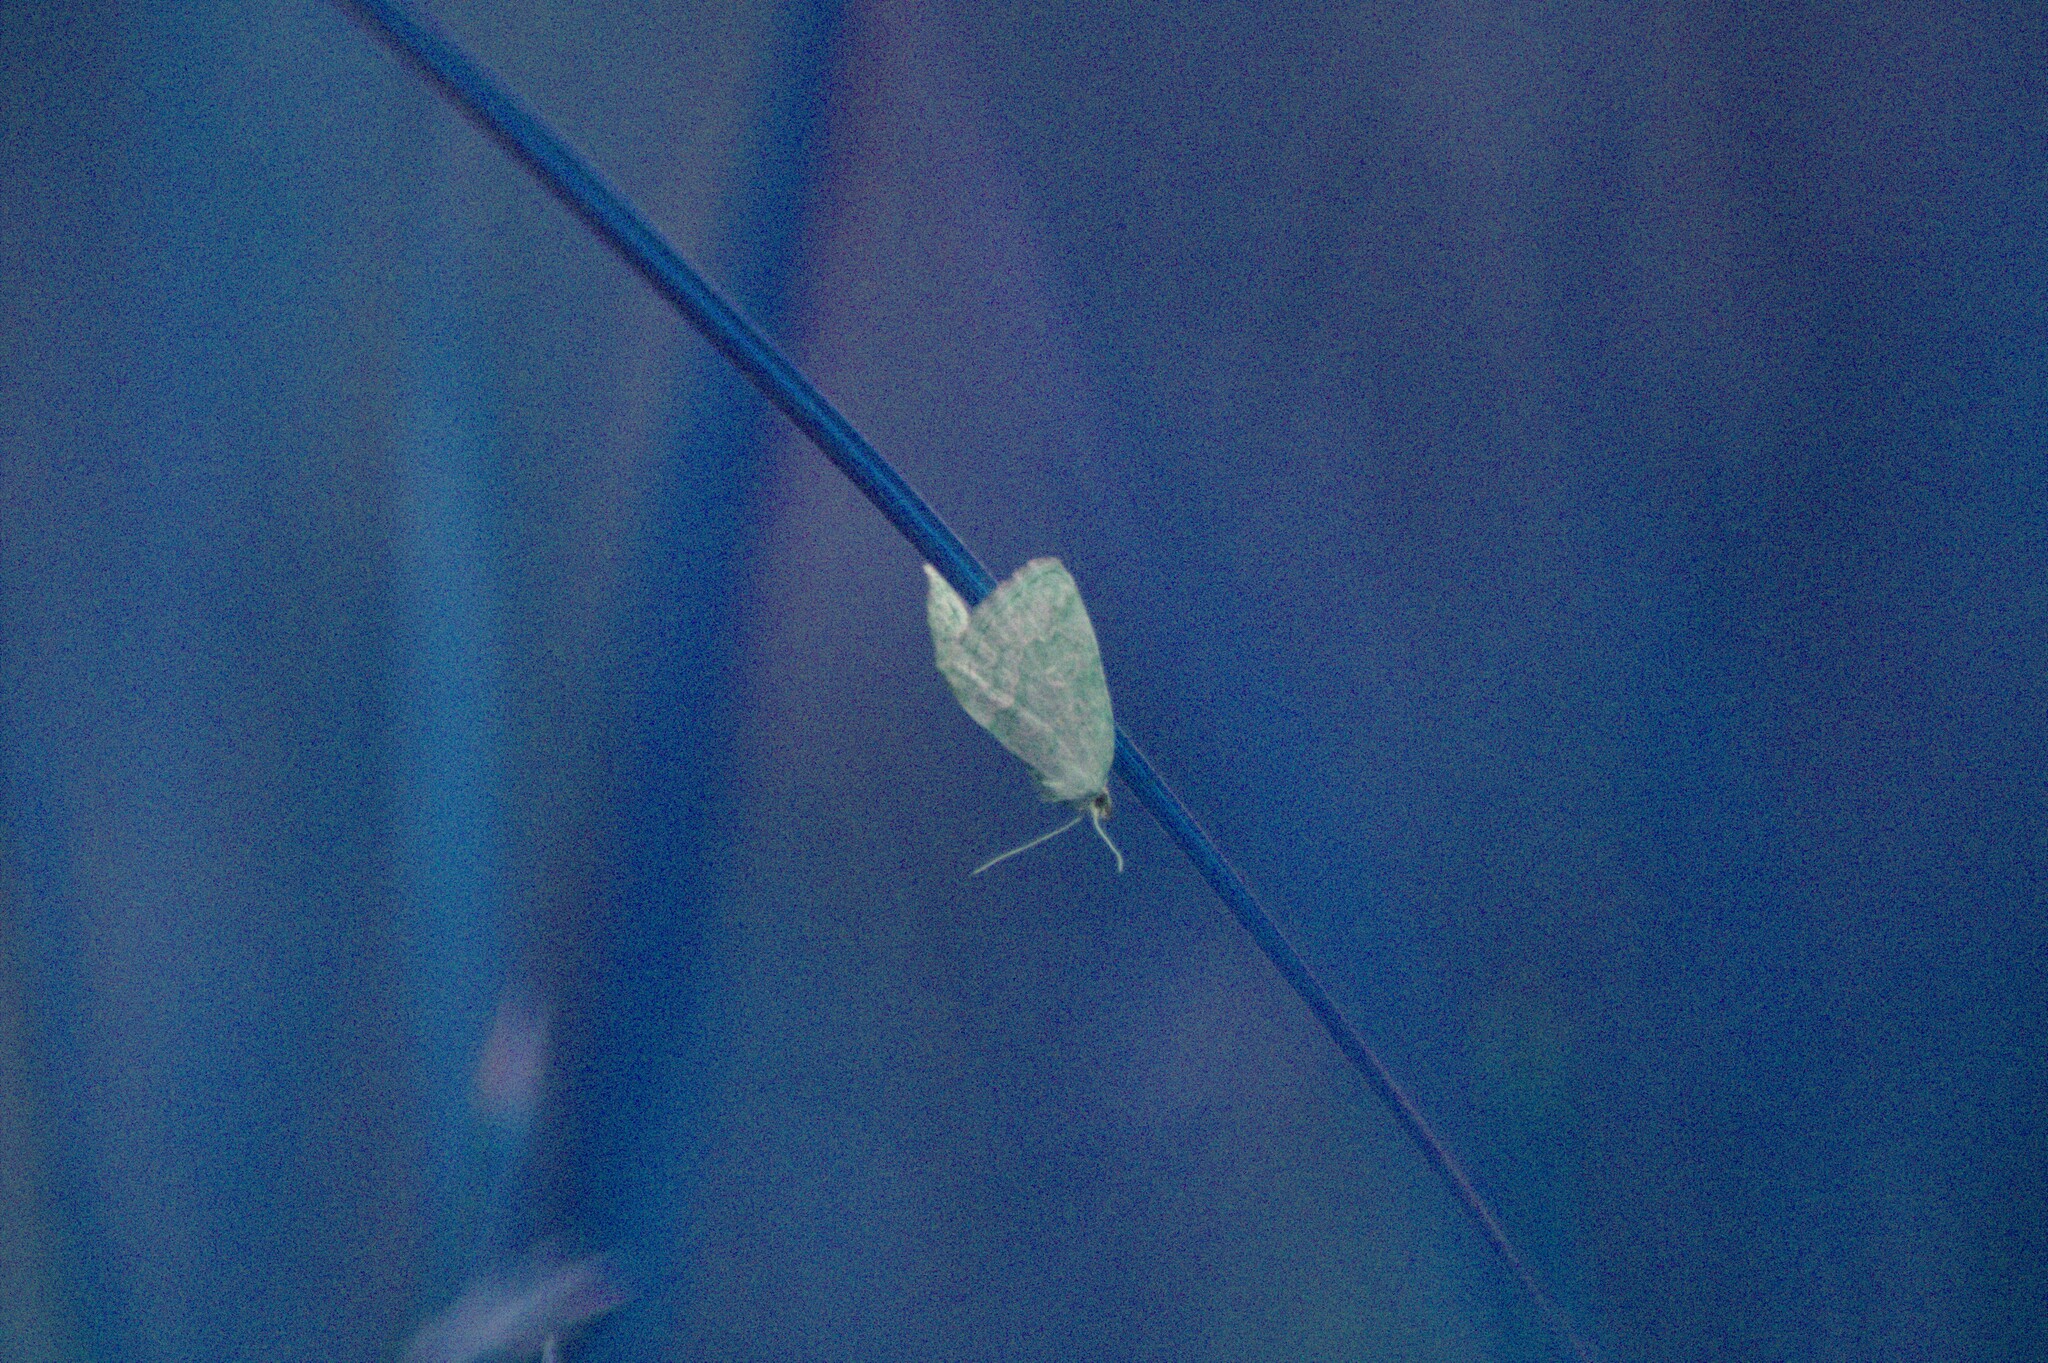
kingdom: Animalia
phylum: Arthropoda
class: Insecta
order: Lepidoptera
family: Noctuidae
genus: Protodeltote
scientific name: Protodeltote albidula
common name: Pale glyph
